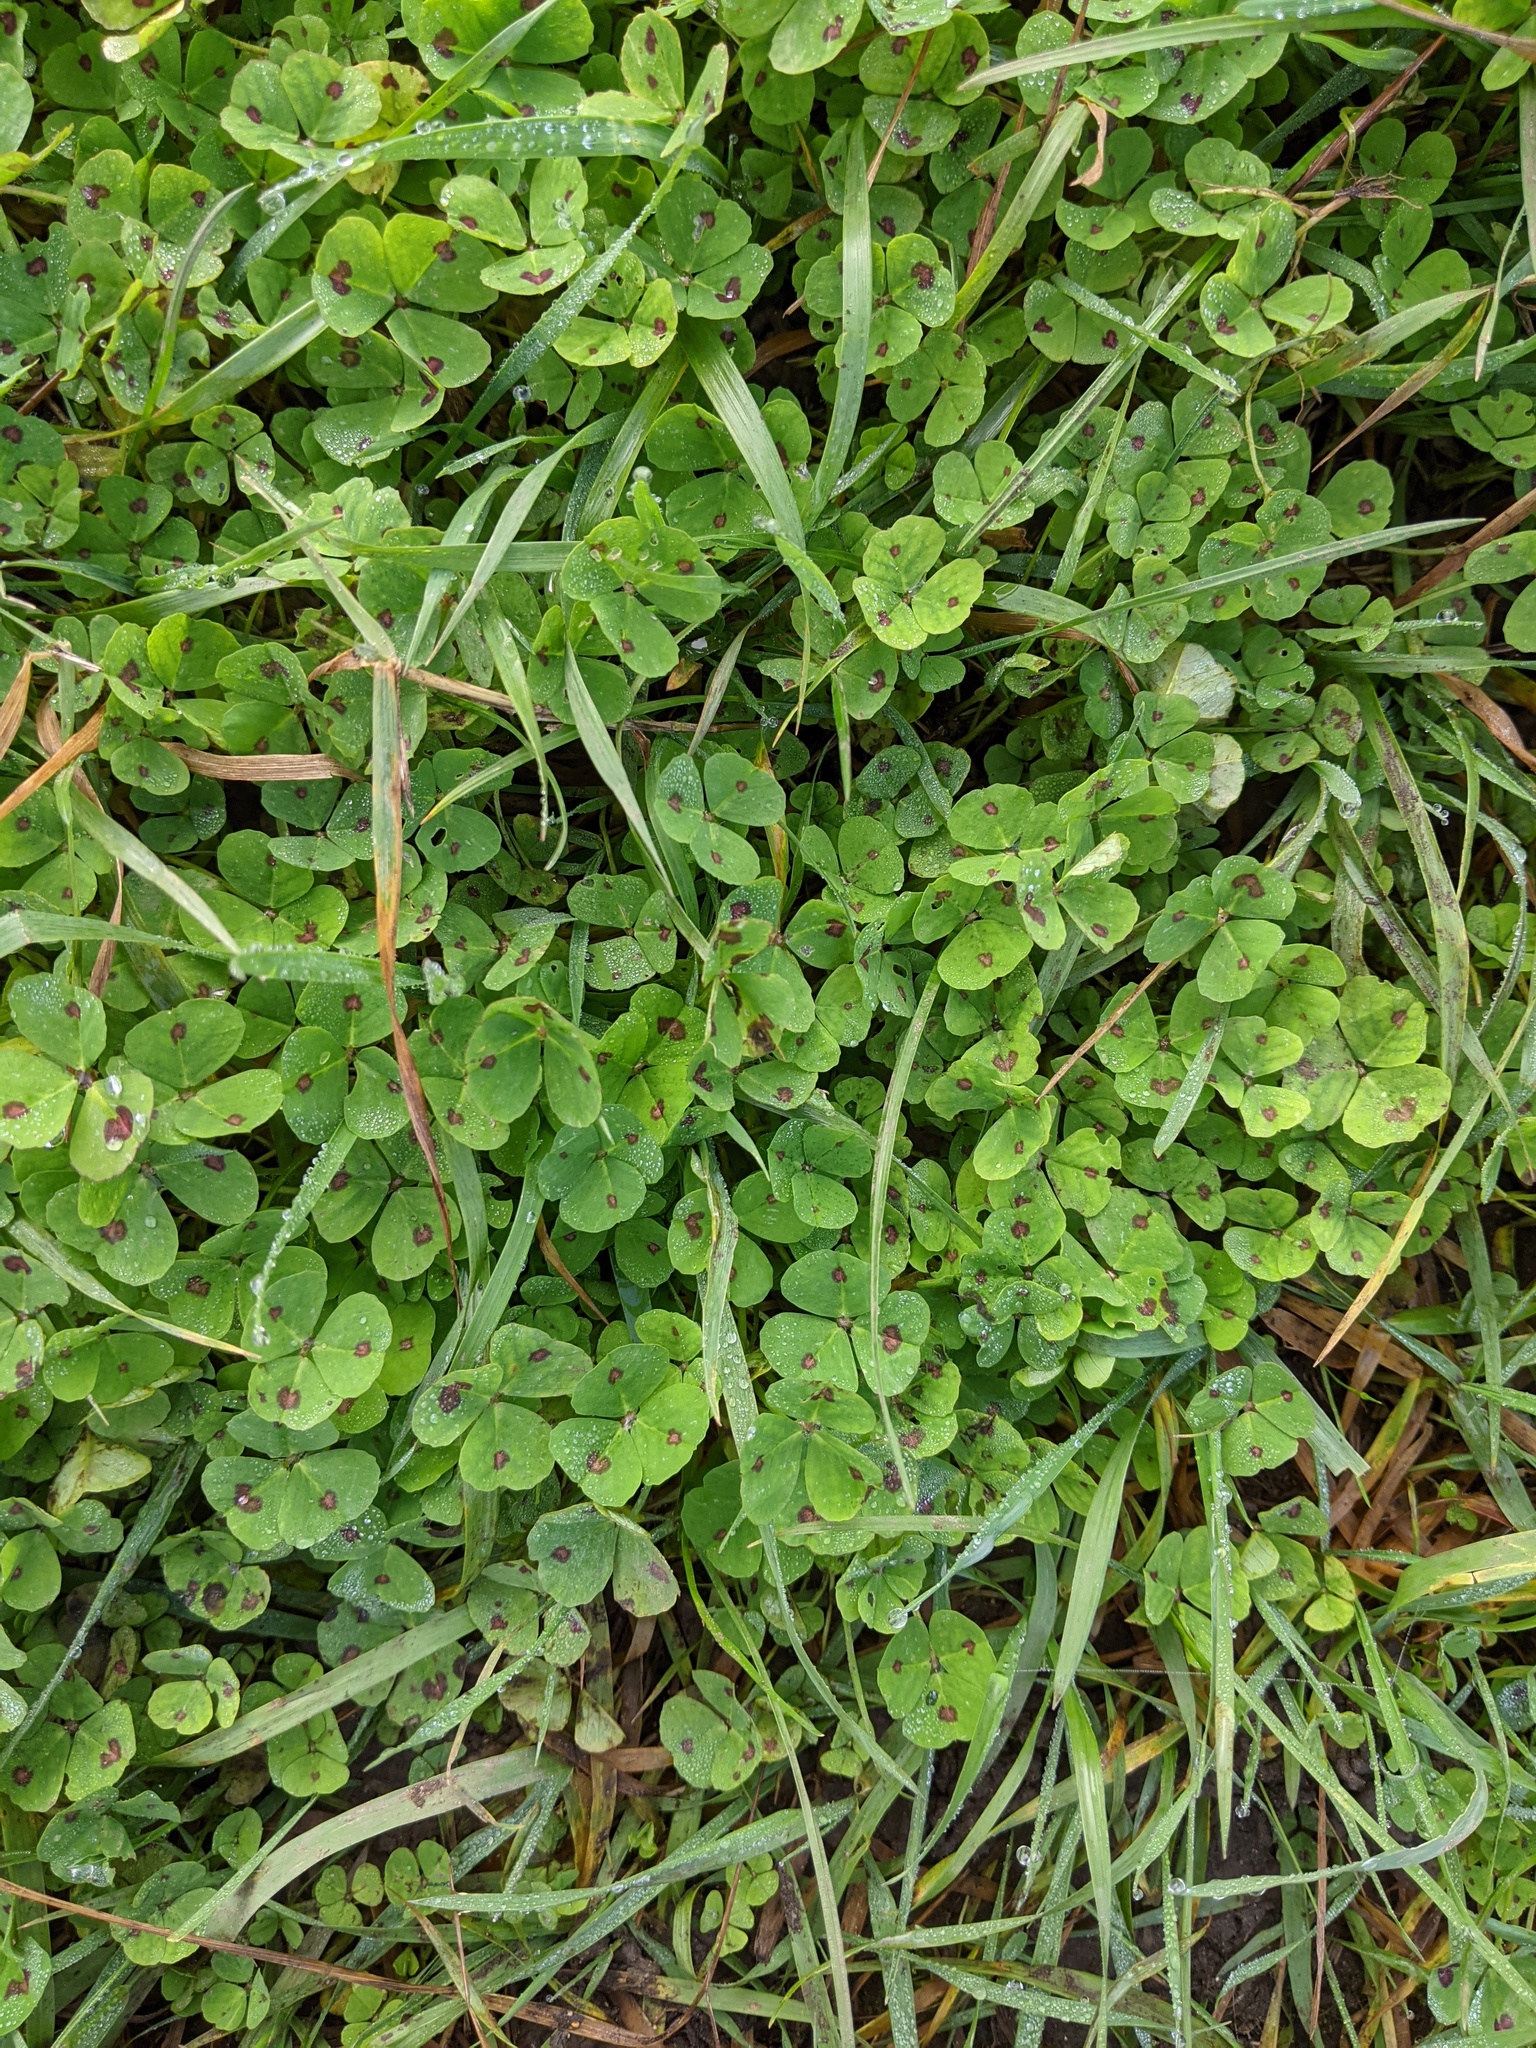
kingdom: Plantae
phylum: Tracheophyta
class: Magnoliopsida
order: Fabales
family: Fabaceae
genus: Medicago
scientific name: Medicago arabica
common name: Spotted medick
